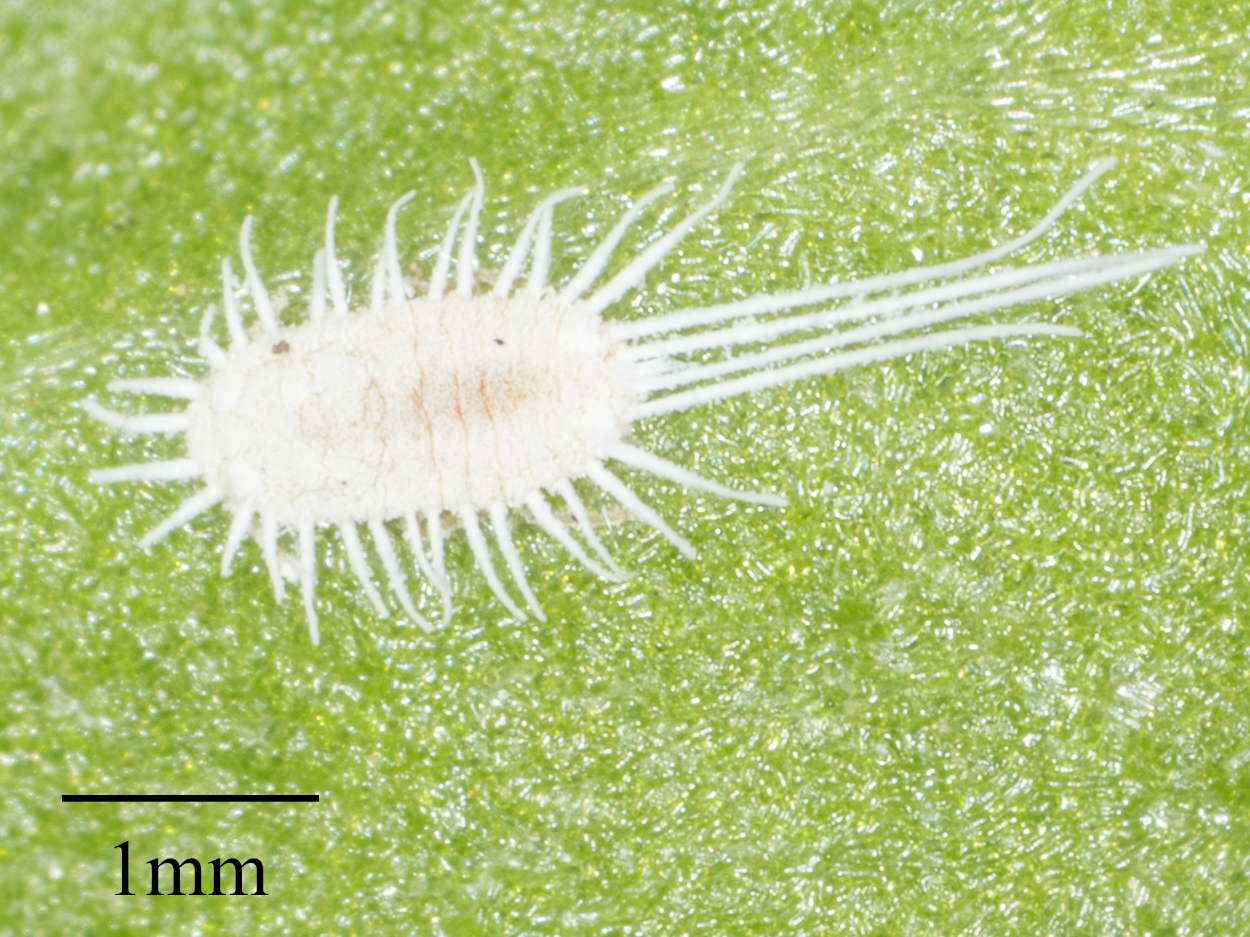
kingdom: Animalia
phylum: Arthropoda
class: Insecta
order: Hemiptera
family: Pseudococcidae
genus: Pseudococcus
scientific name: Pseudococcus longispinus
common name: Long-tailed mealybug
